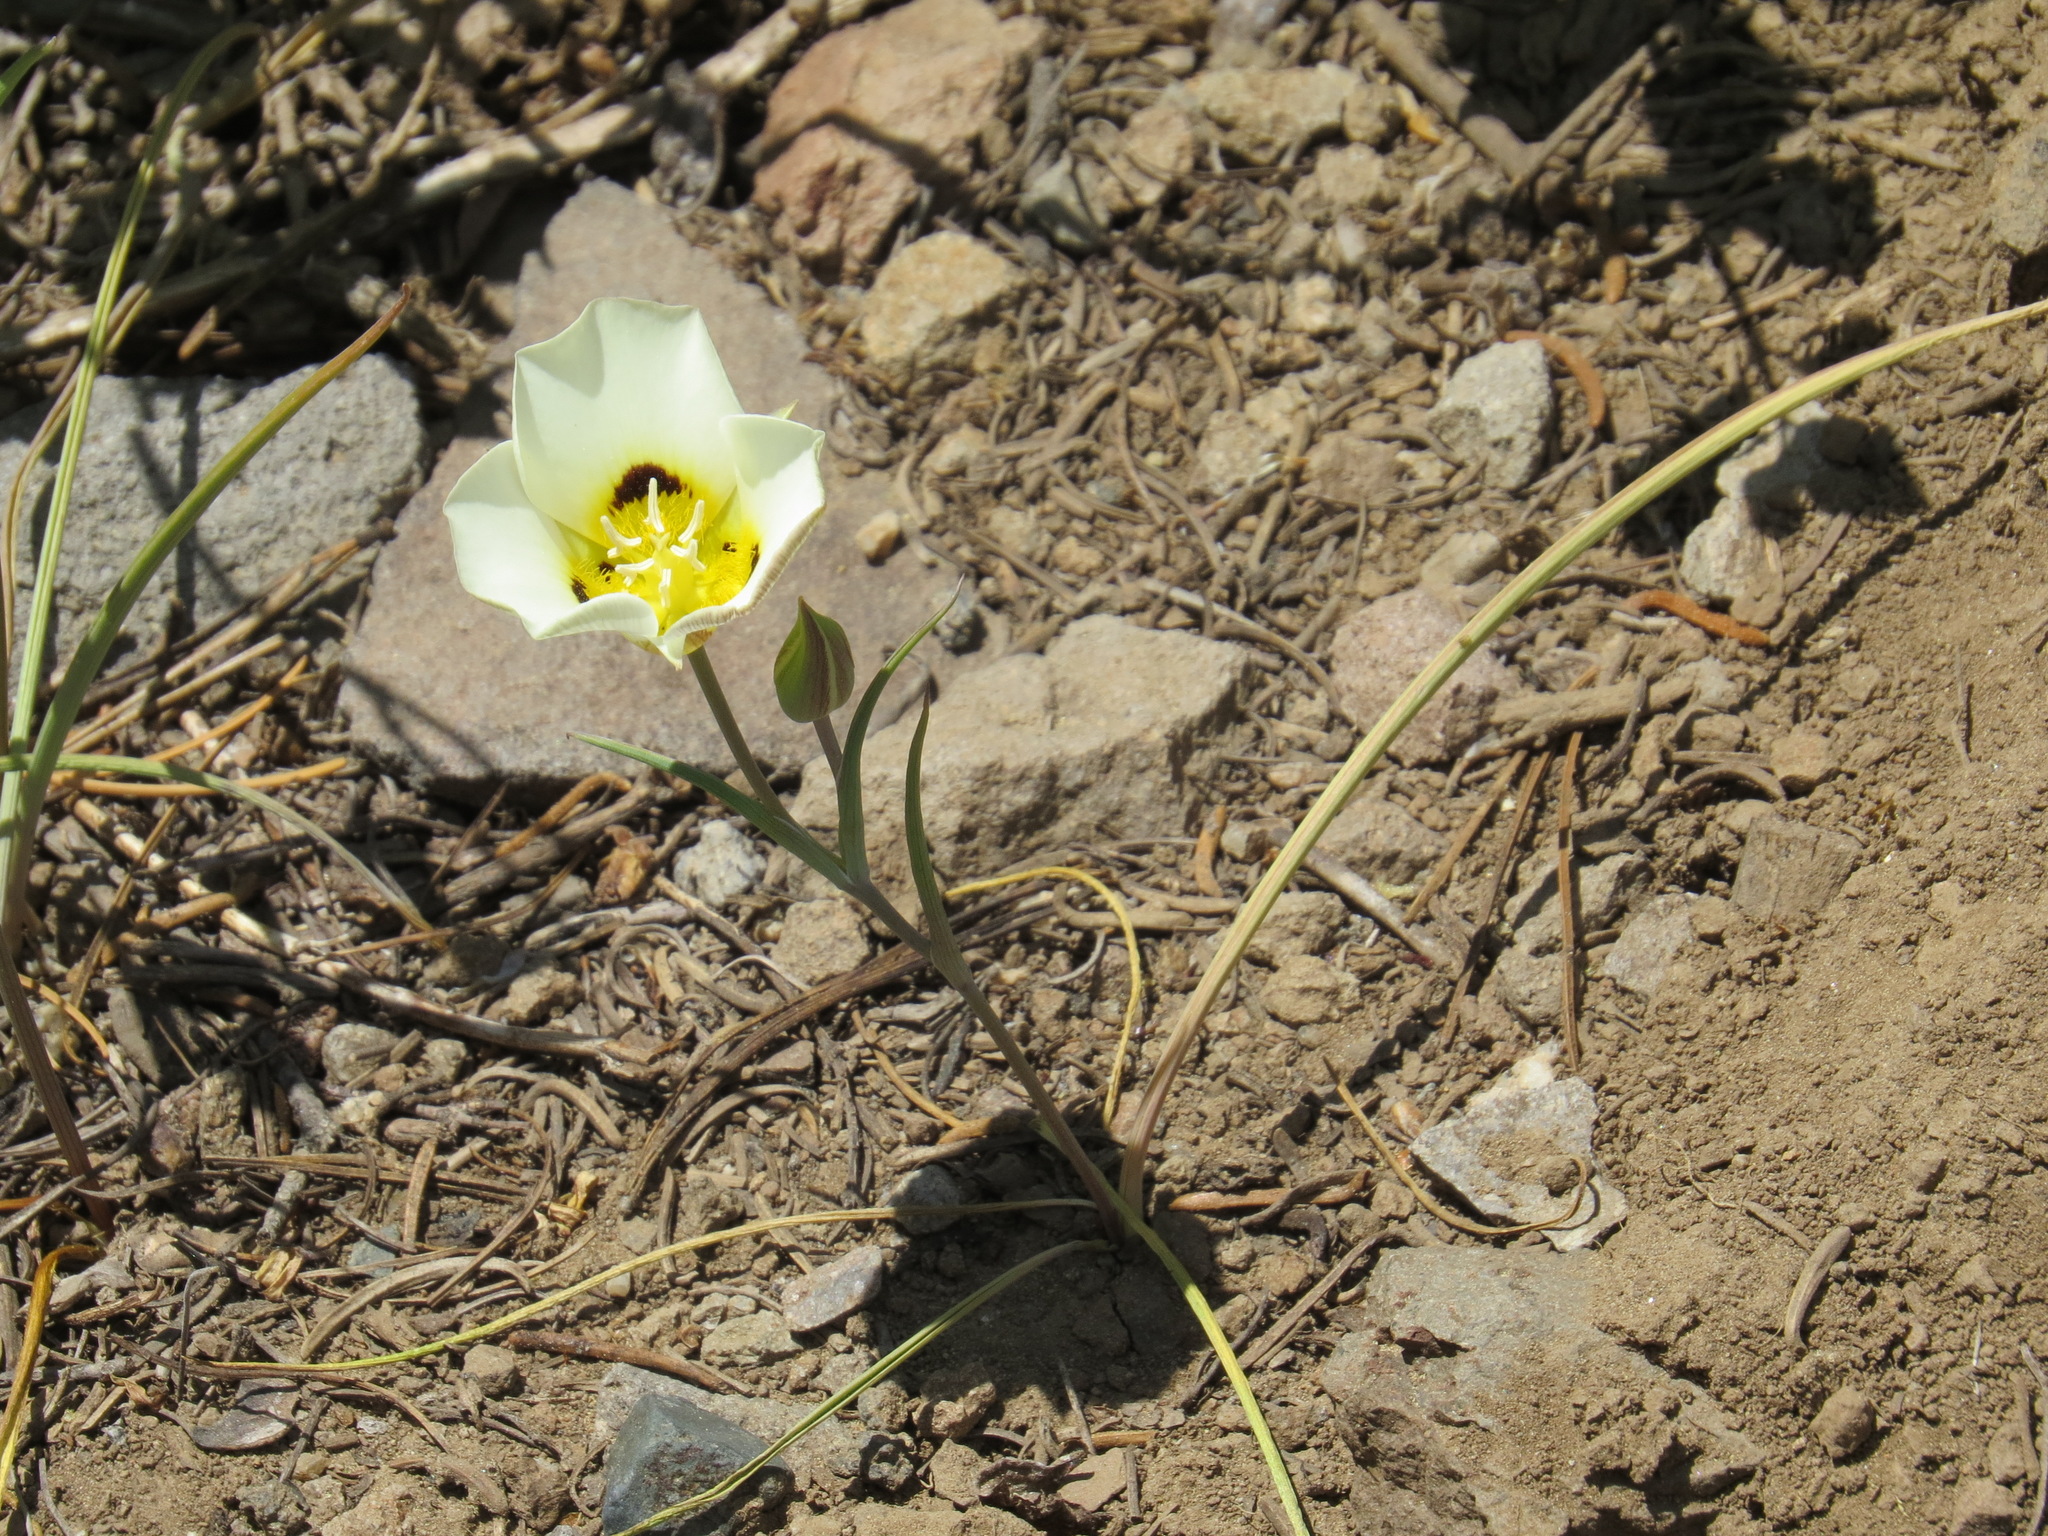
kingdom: Plantae
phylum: Tracheophyta
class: Liliopsida
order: Liliales
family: Liliaceae
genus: Calochortus
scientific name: Calochortus leichtlinii
